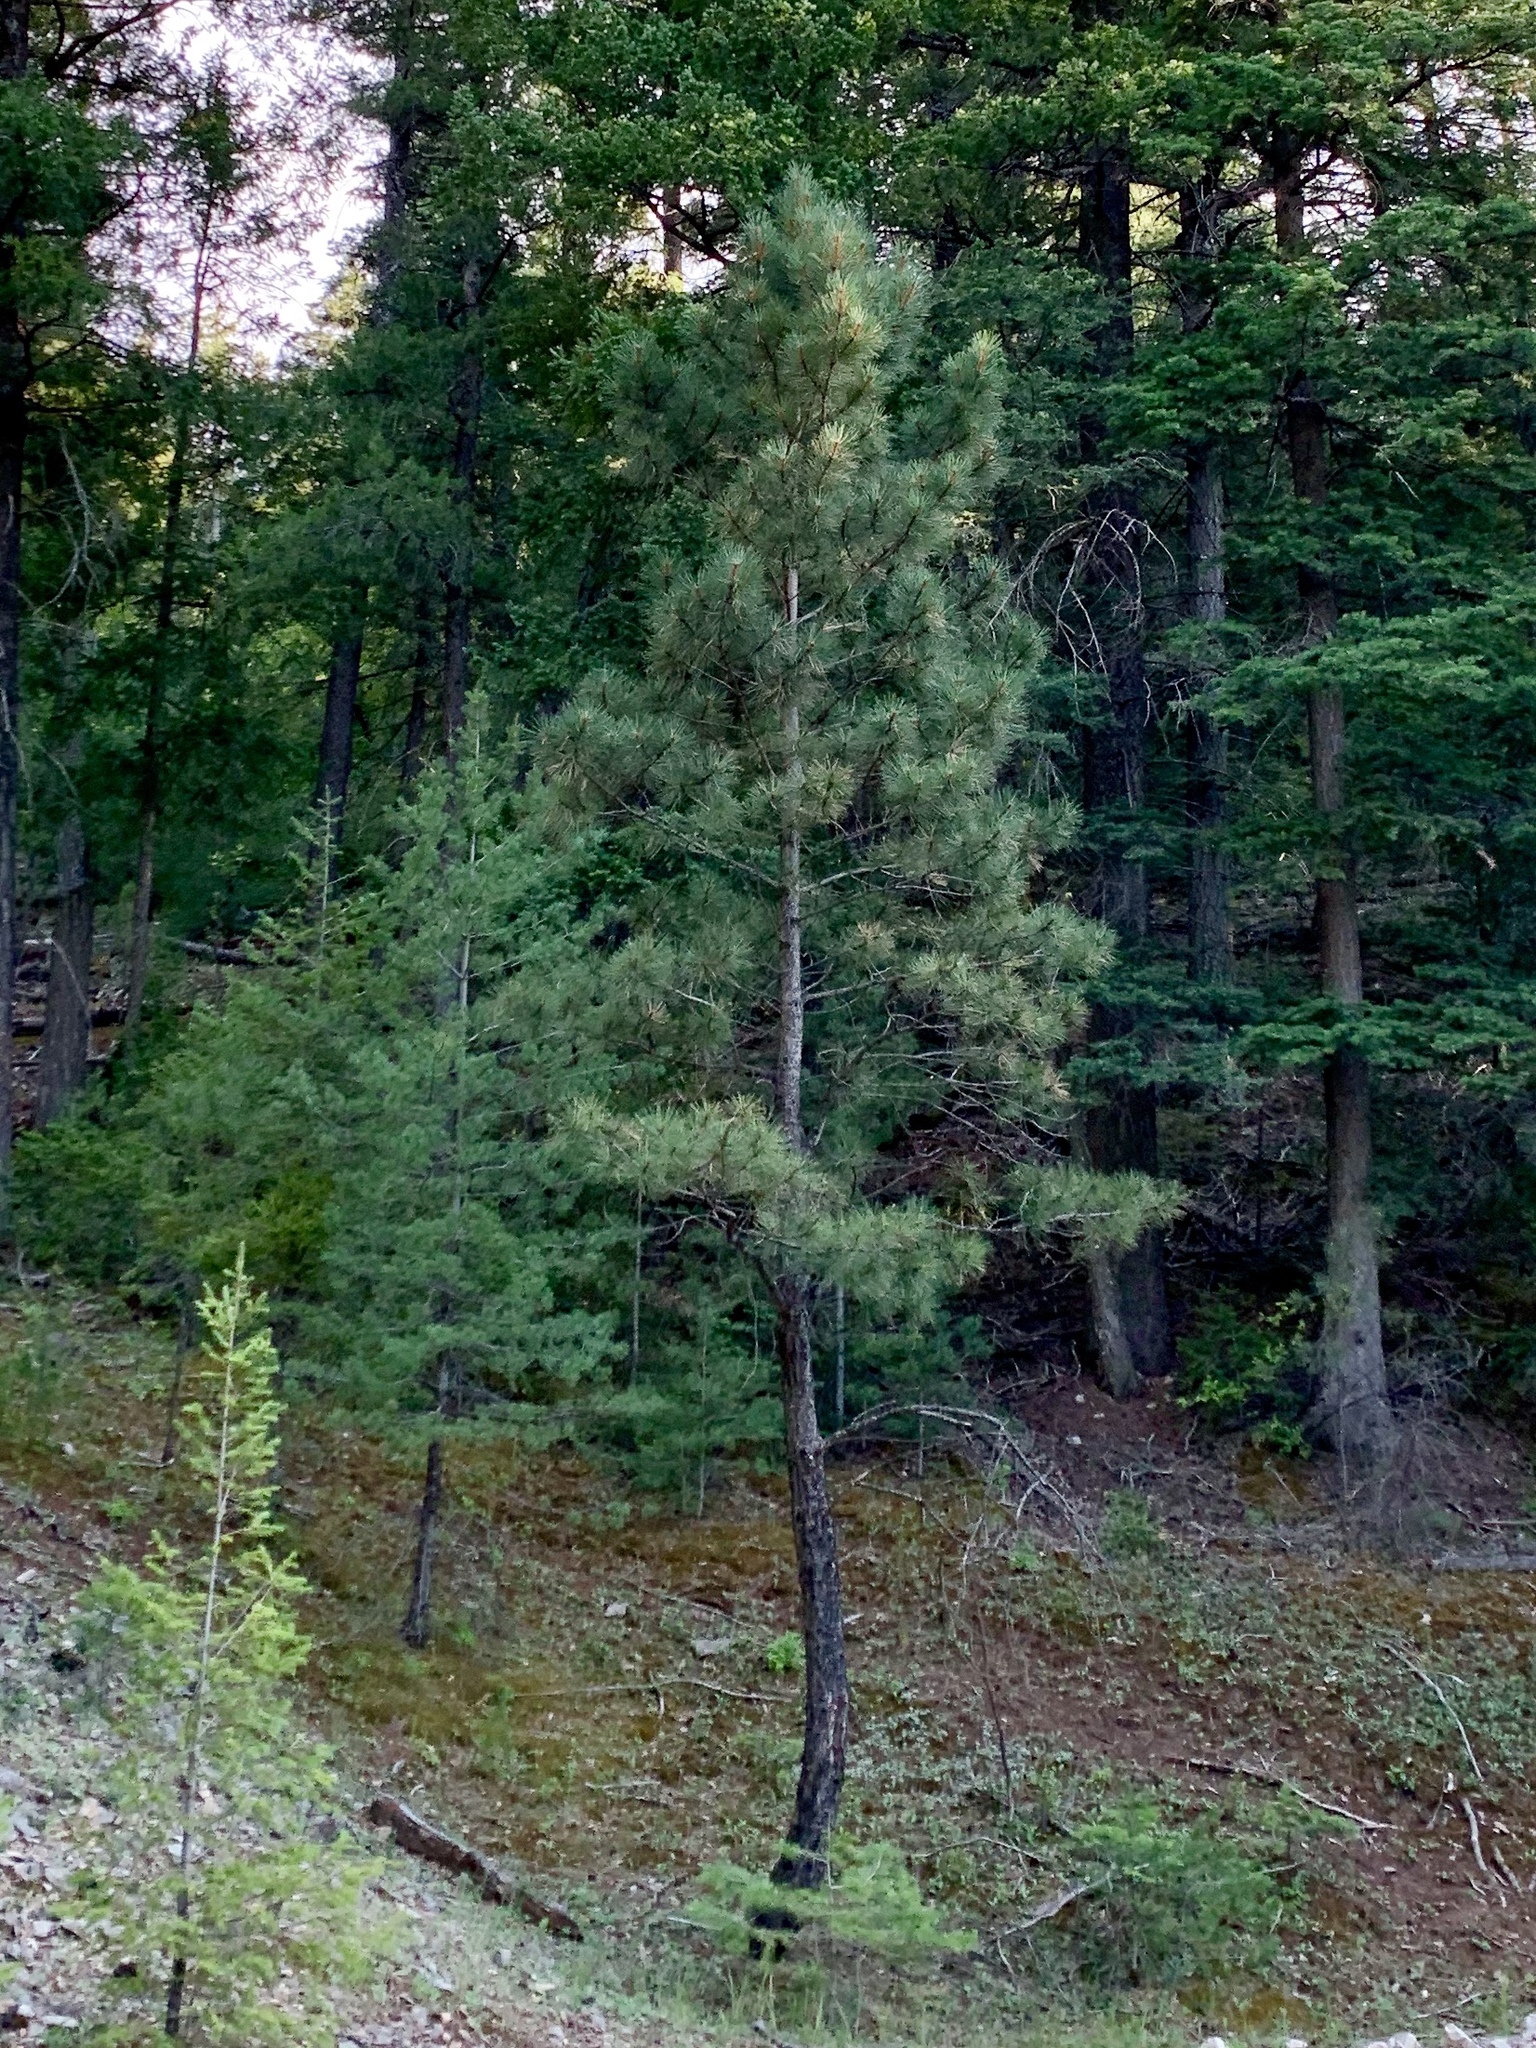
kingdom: Plantae
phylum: Tracheophyta
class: Pinopsida
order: Pinales
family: Pinaceae
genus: Pinus
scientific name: Pinus ponderosa
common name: Western yellow-pine
